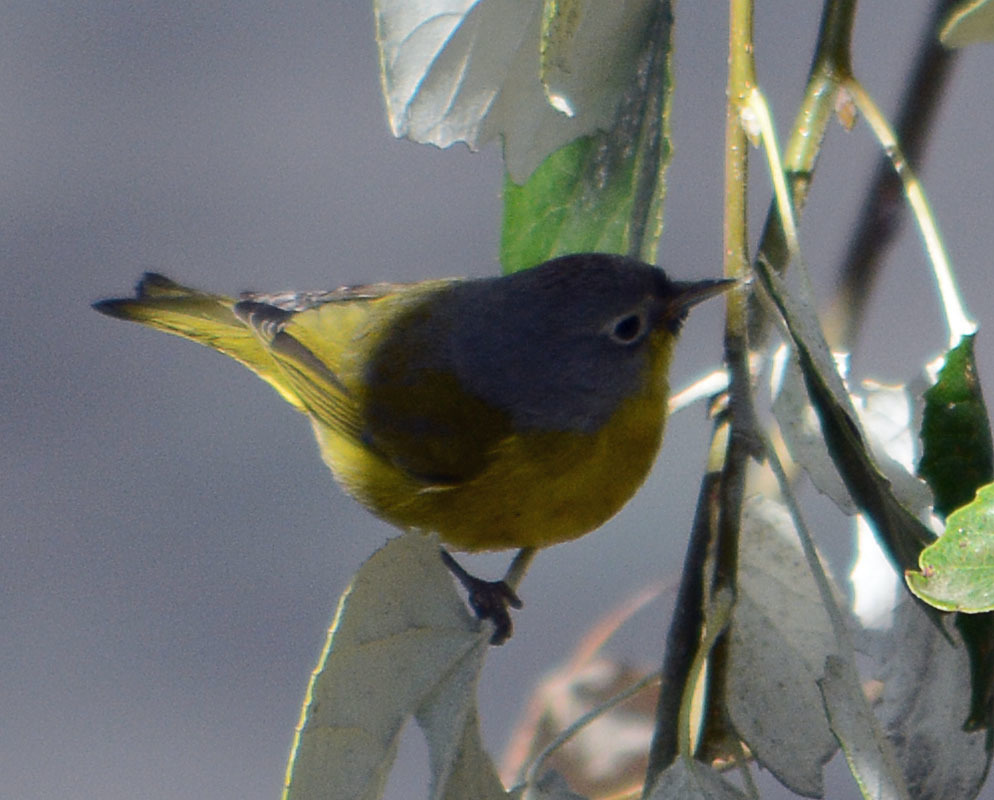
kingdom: Animalia
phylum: Chordata
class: Aves
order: Passeriformes
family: Parulidae
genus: Leiothlypis
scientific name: Leiothlypis ruficapilla
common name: Nashville warbler
